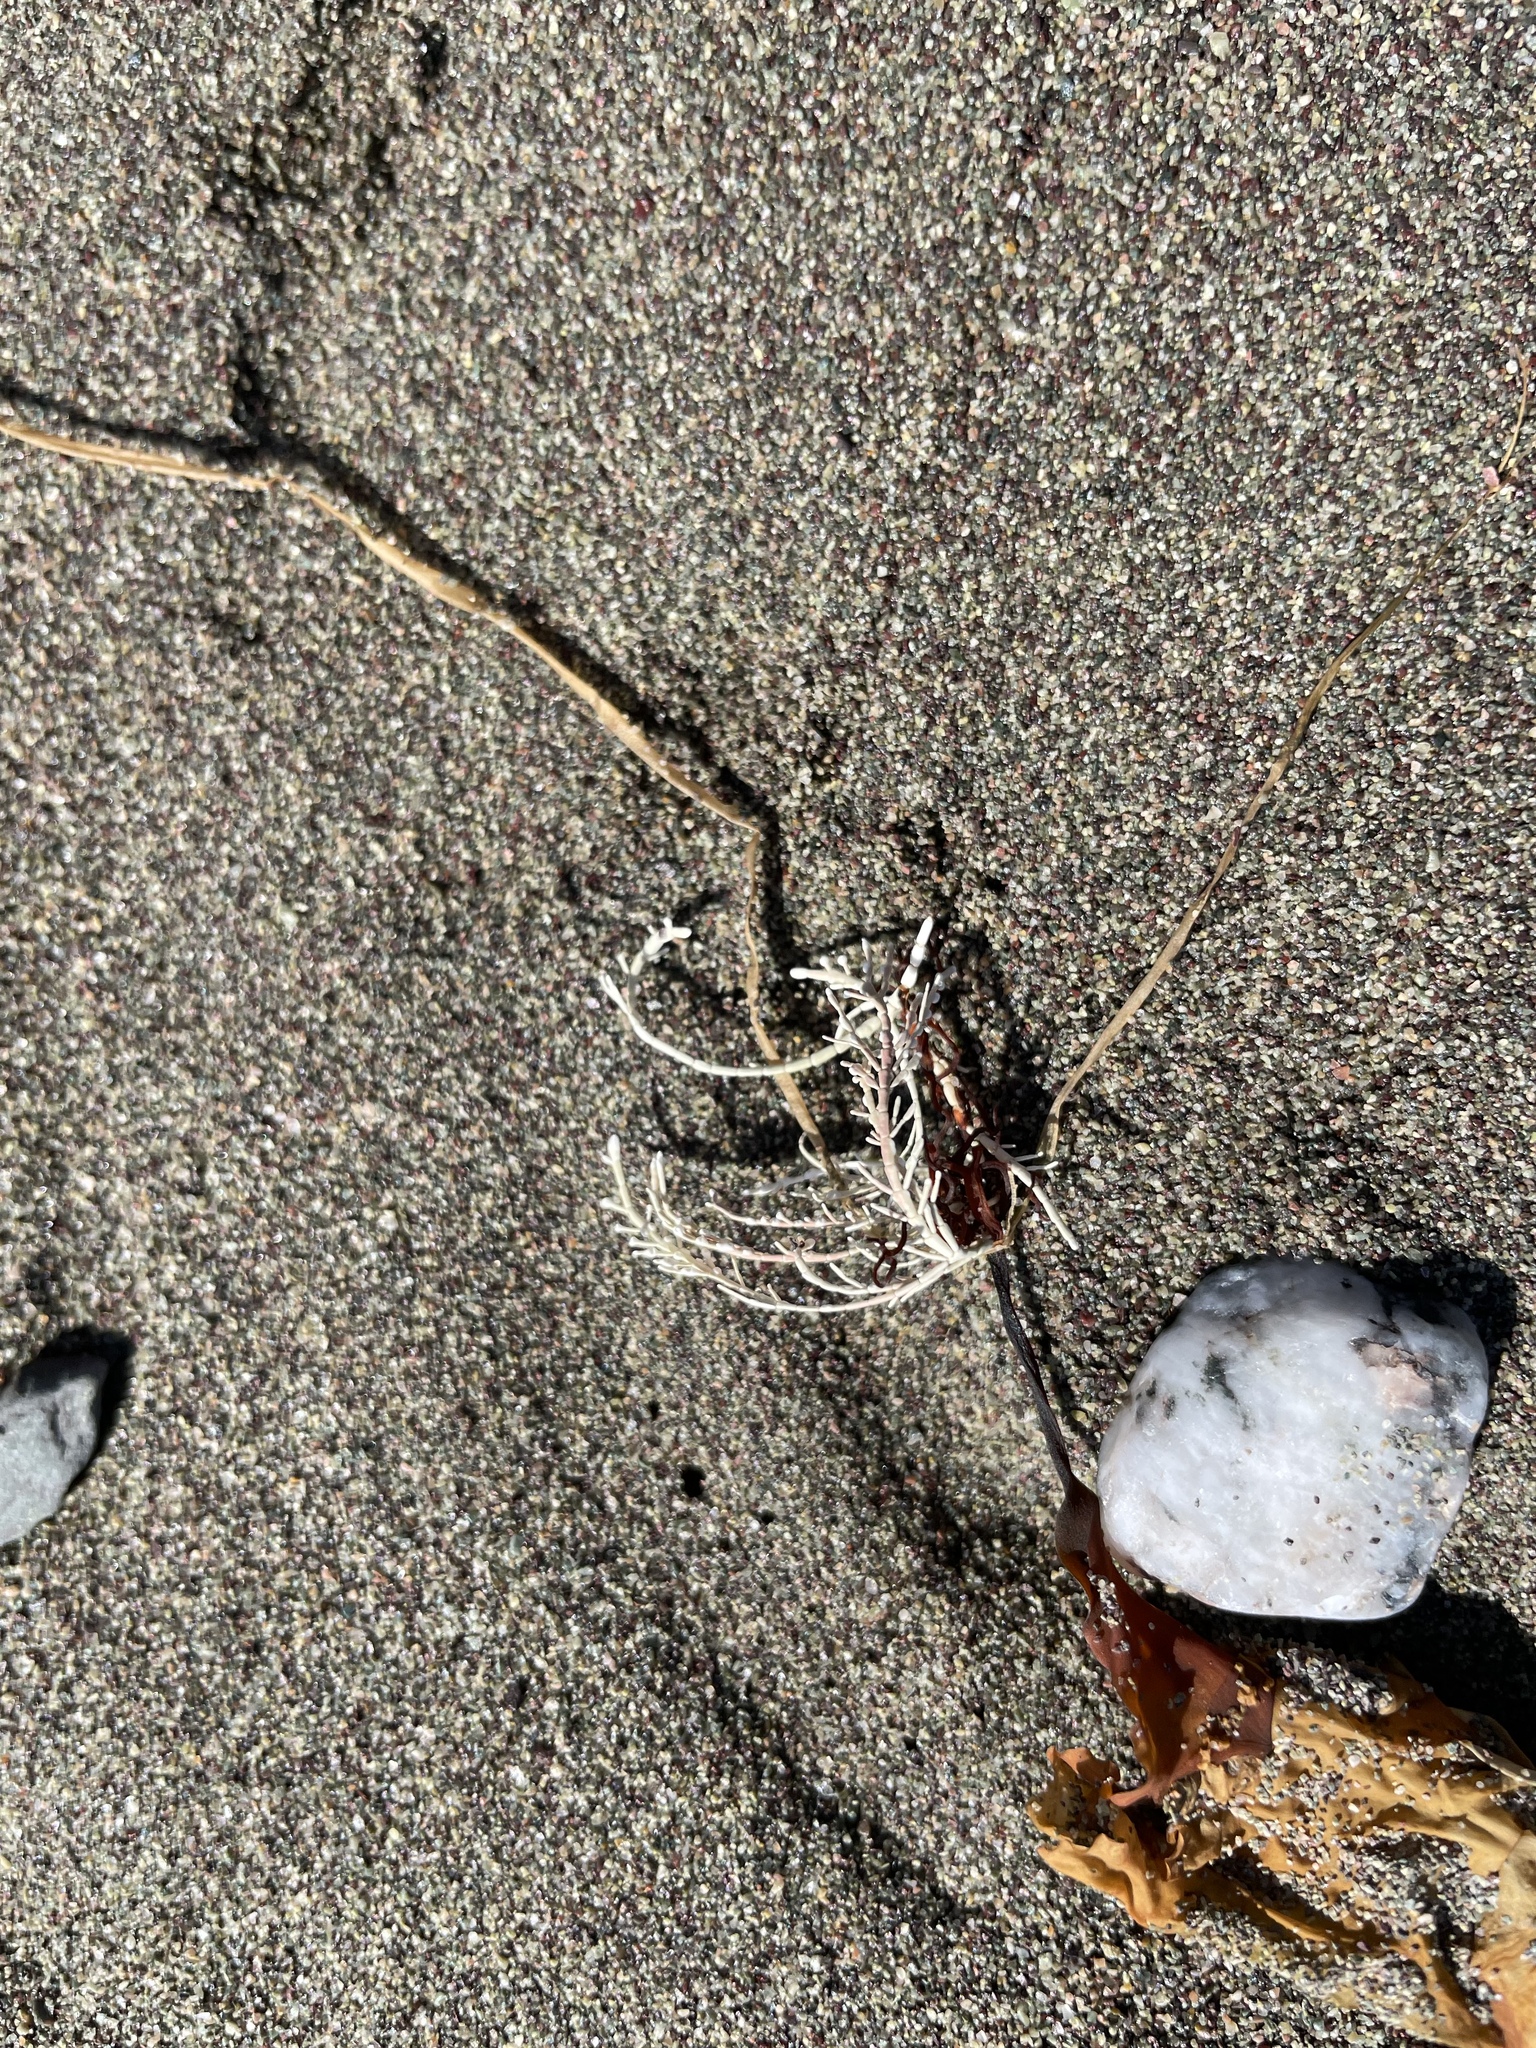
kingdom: Plantae
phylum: Rhodophyta
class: Florideophyceae
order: Corallinales
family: Corallinaceae
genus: Corallina
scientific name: Corallina officinalis
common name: Coral weed
